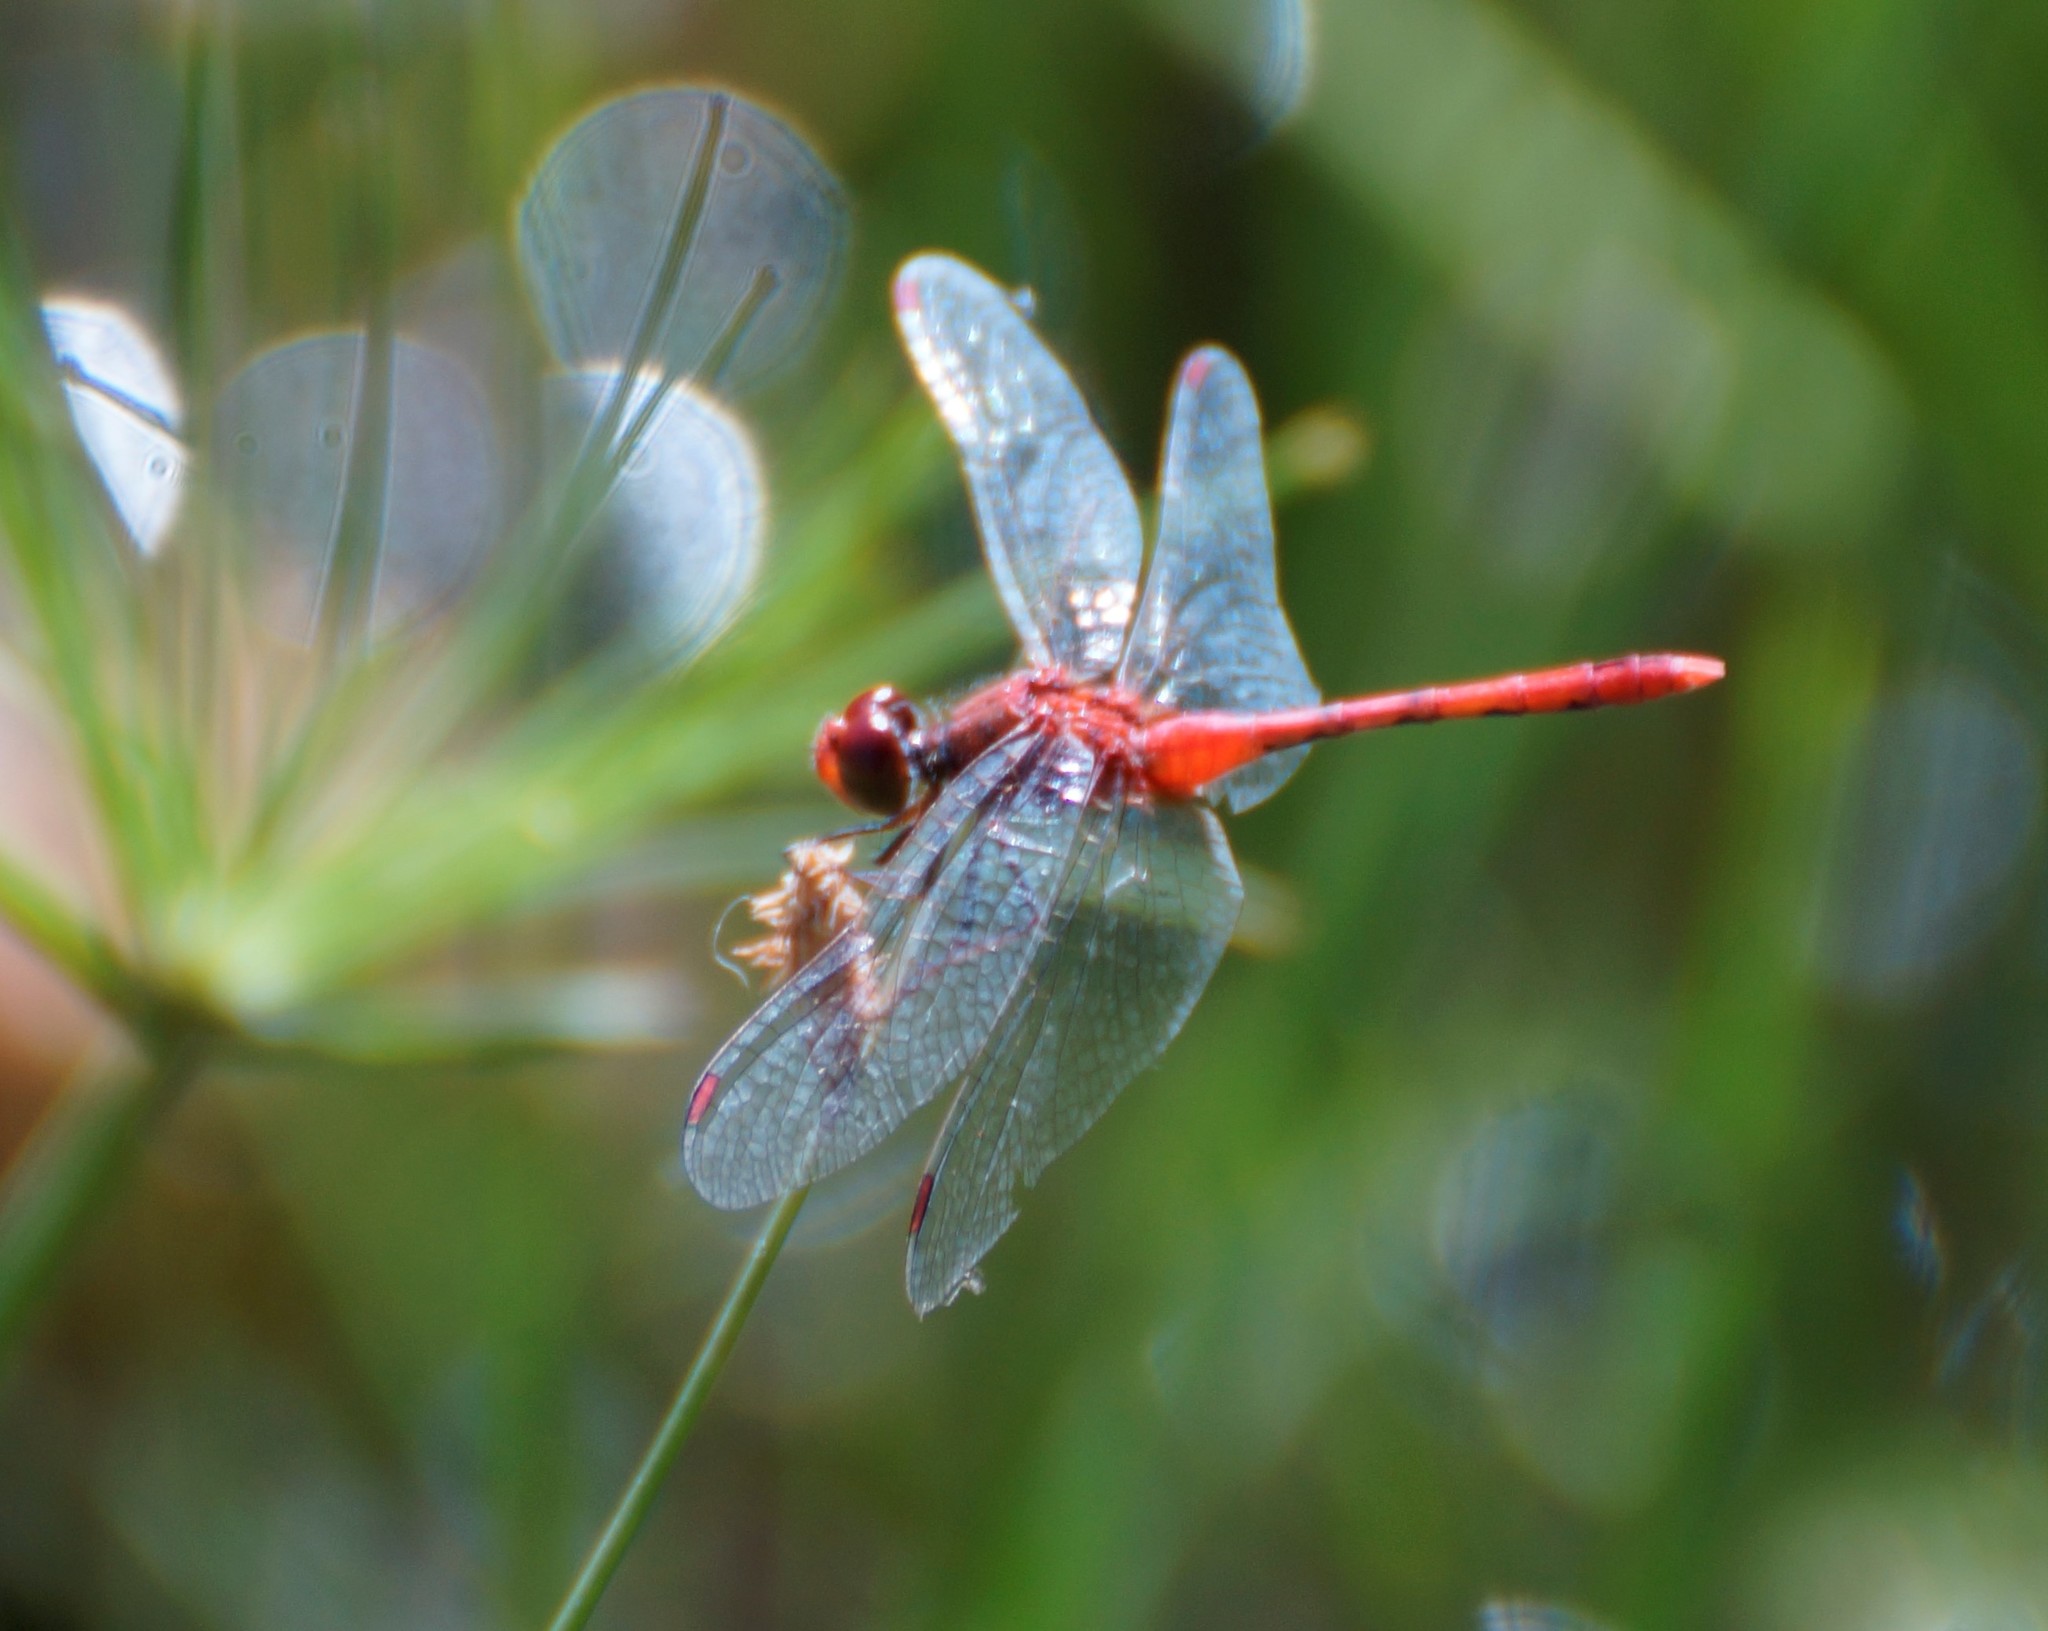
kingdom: Animalia
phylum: Arthropoda
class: Insecta
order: Odonata
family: Libellulidae
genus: Diplacodes
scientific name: Diplacodes bipunctata
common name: Red percher dragonfly
